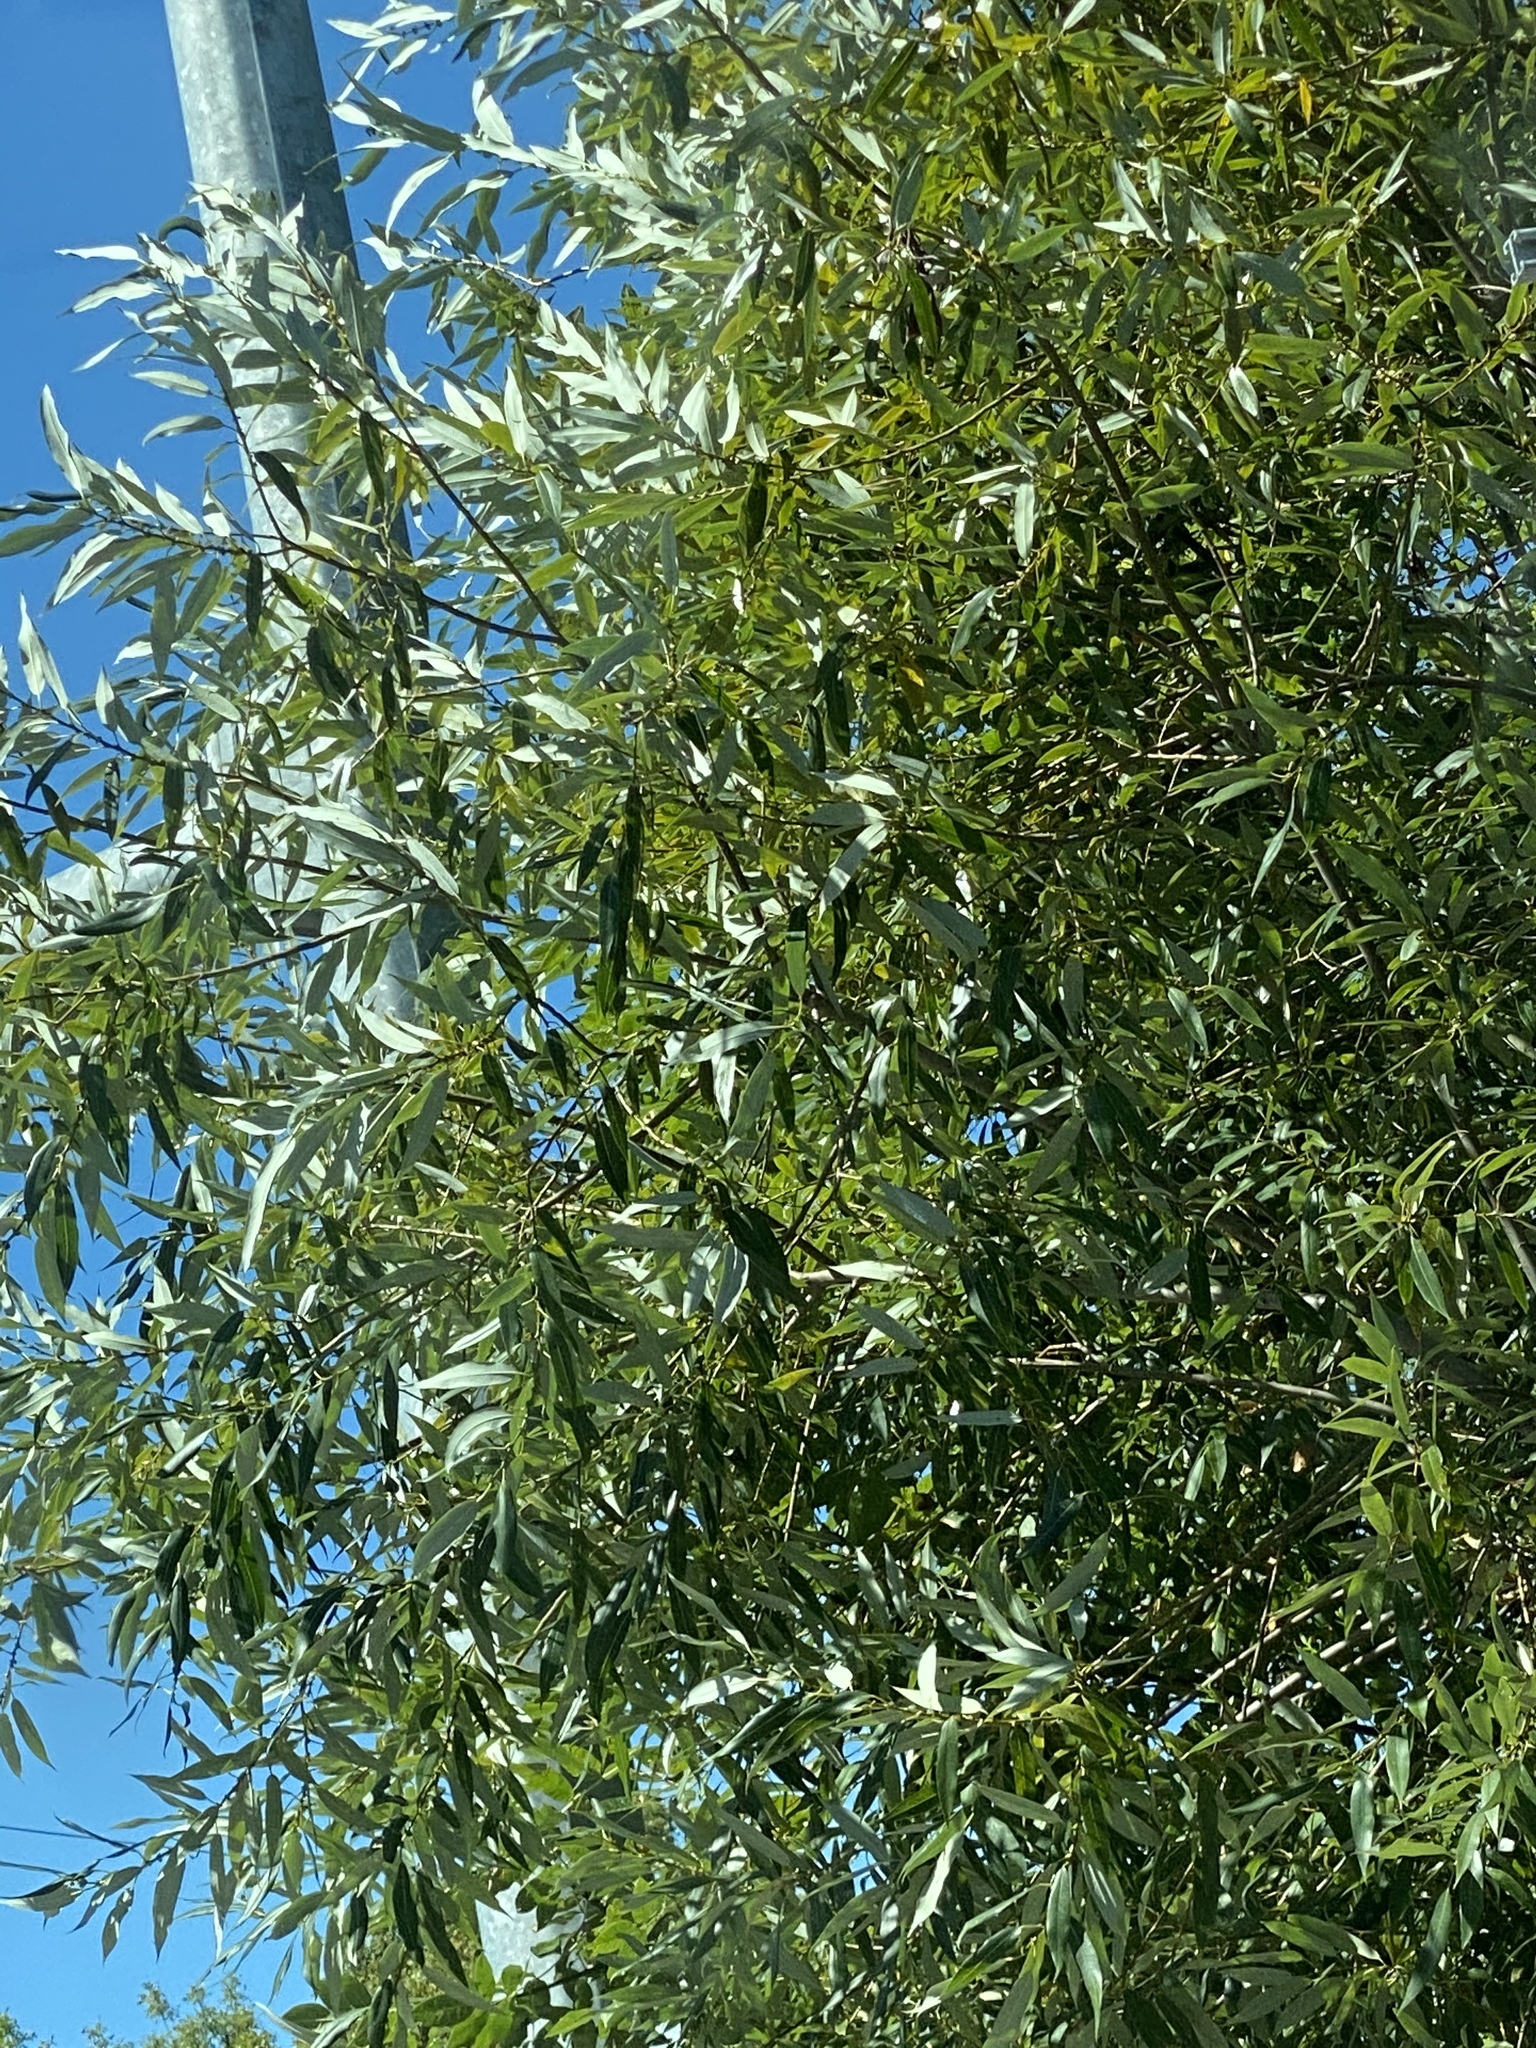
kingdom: Plantae
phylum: Tracheophyta
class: Magnoliopsida
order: Malpighiales
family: Salicaceae
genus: Salix
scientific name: Salix lucida
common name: Shining willow
